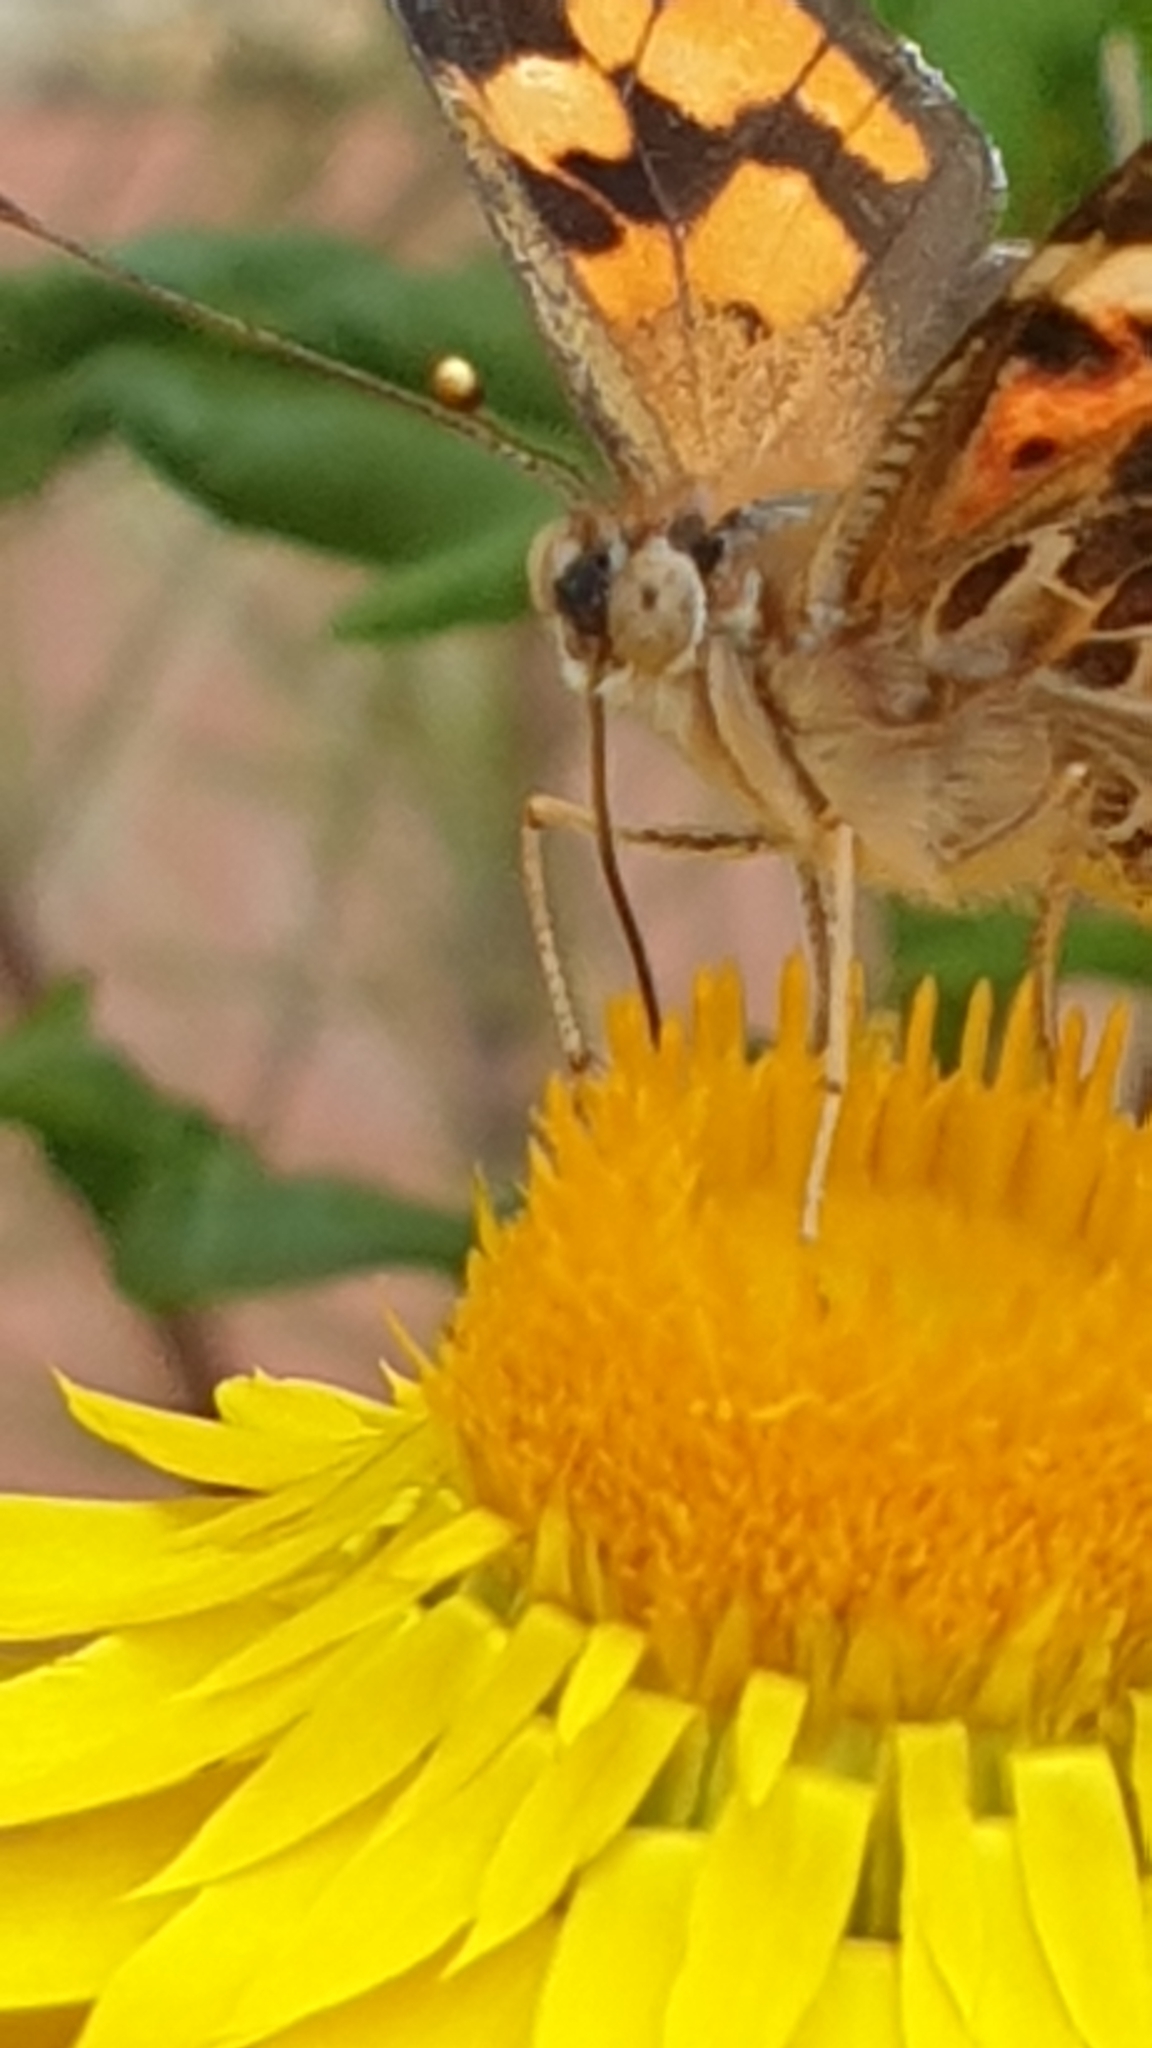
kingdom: Animalia
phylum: Arthropoda
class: Insecta
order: Lepidoptera
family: Nymphalidae
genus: Vanessa
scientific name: Vanessa kershawi
